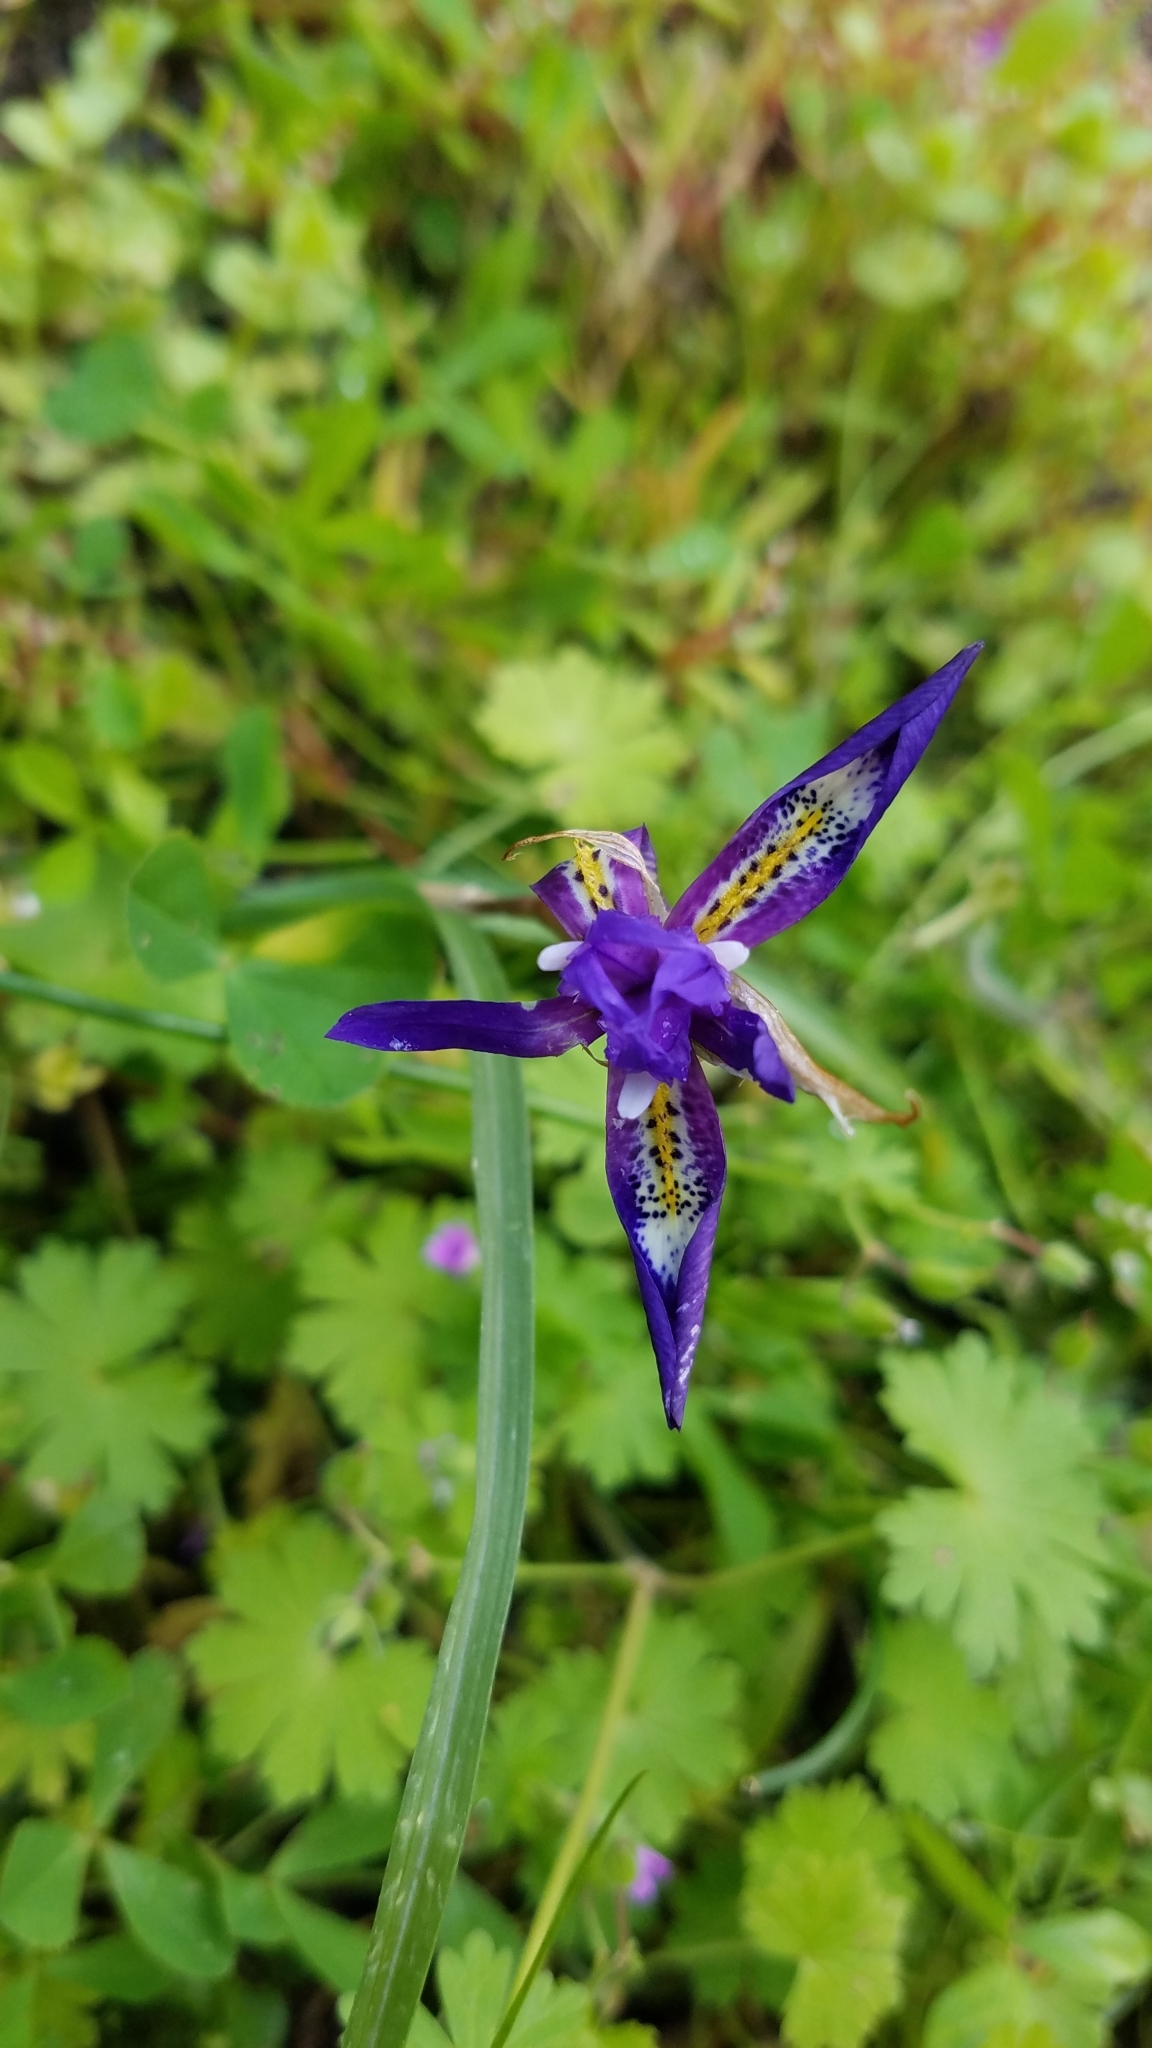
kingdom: Plantae
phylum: Tracheophyta
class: Liliopsida
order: Asparagales
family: Iridaceae
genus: Moraea
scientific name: Moraea sisyrinchium
